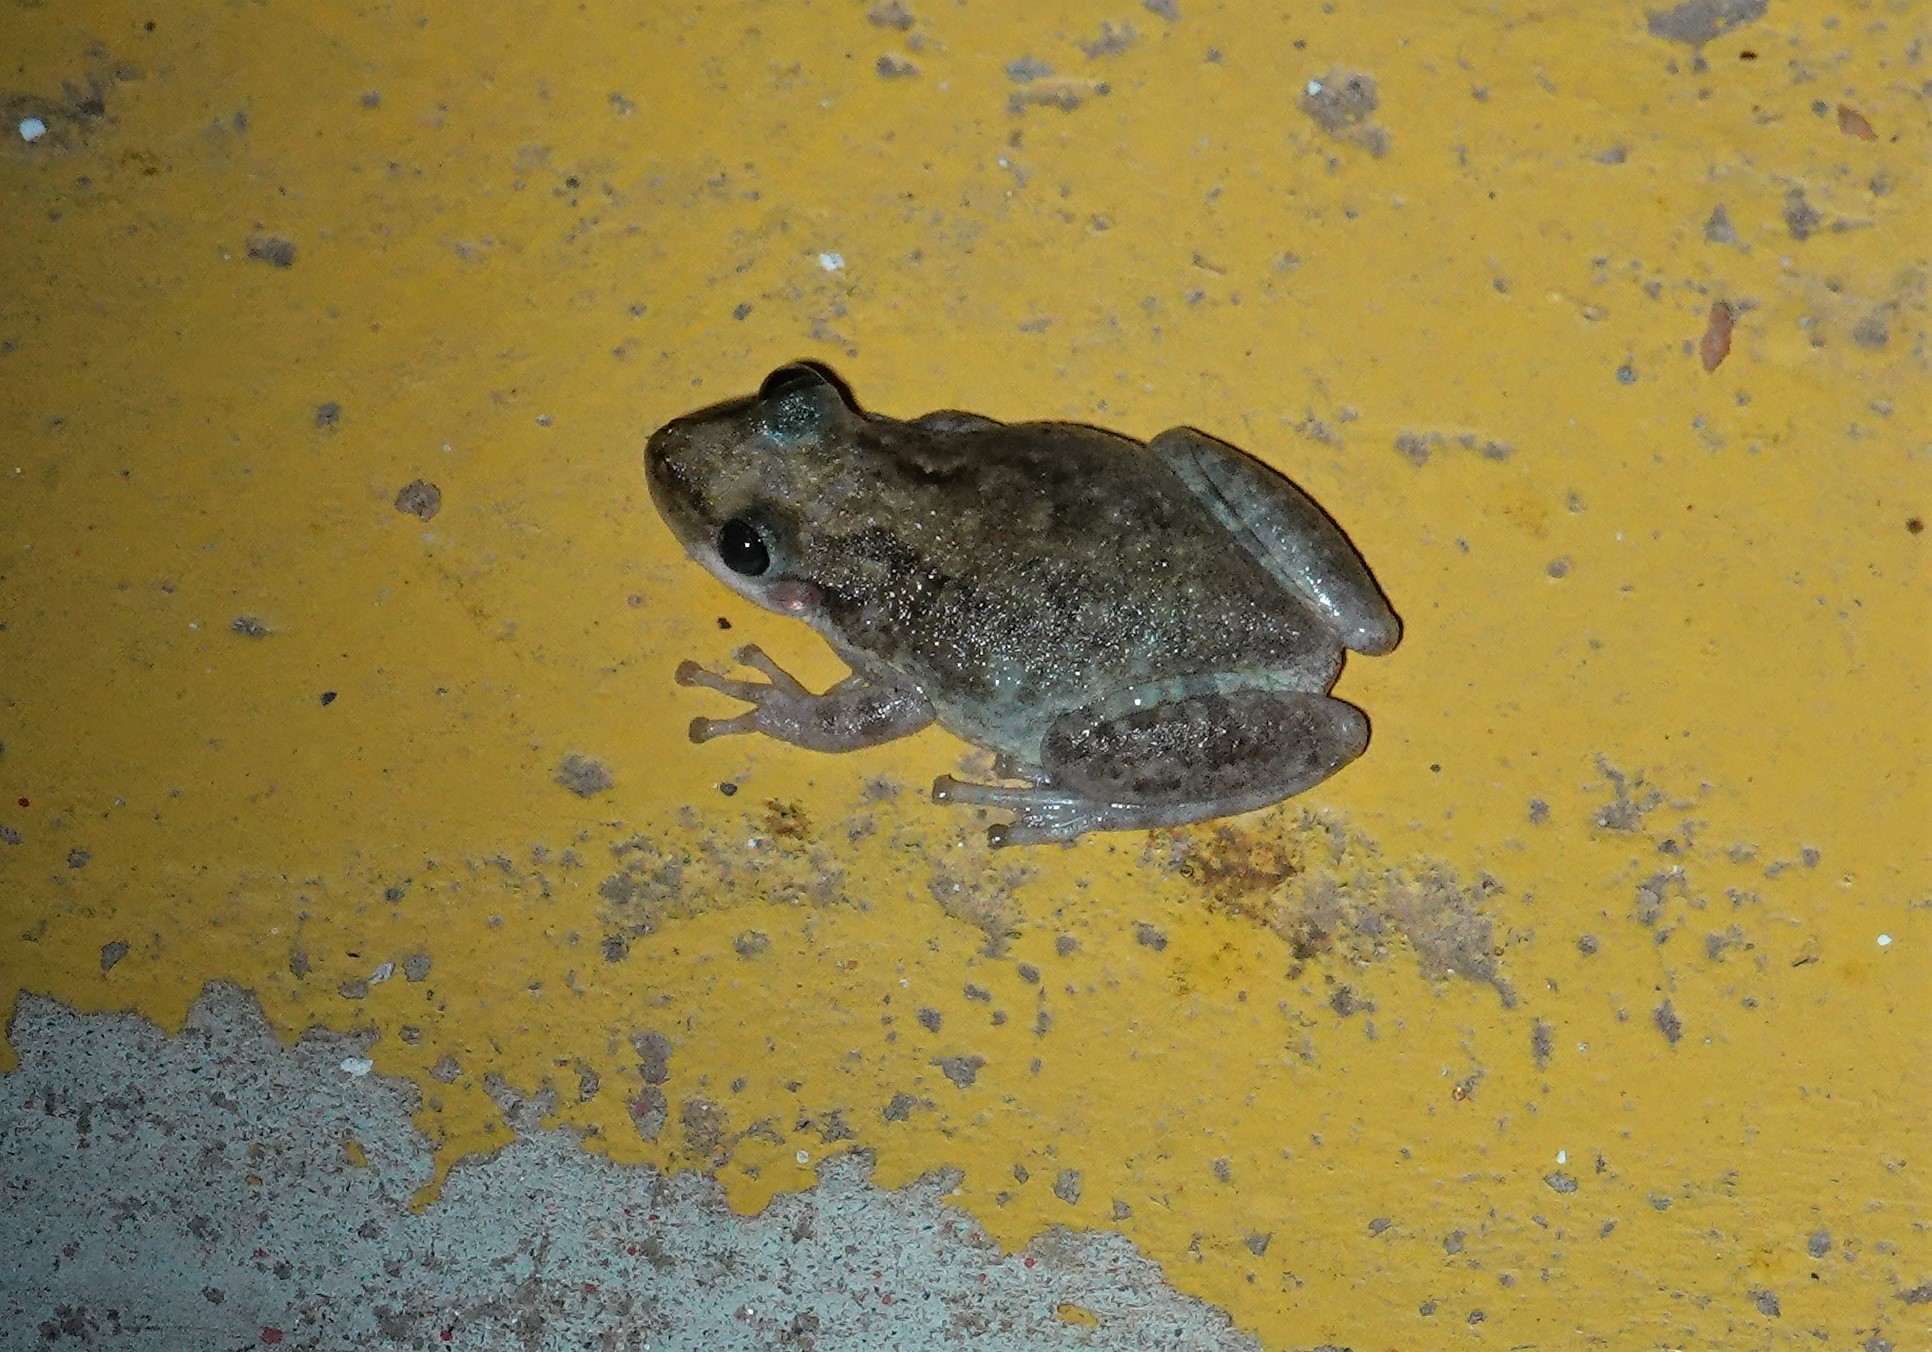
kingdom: Animalia
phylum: Chordata
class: Amphibia
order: Anura
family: Hylidae
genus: Scinax
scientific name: Scinax acuminatus
